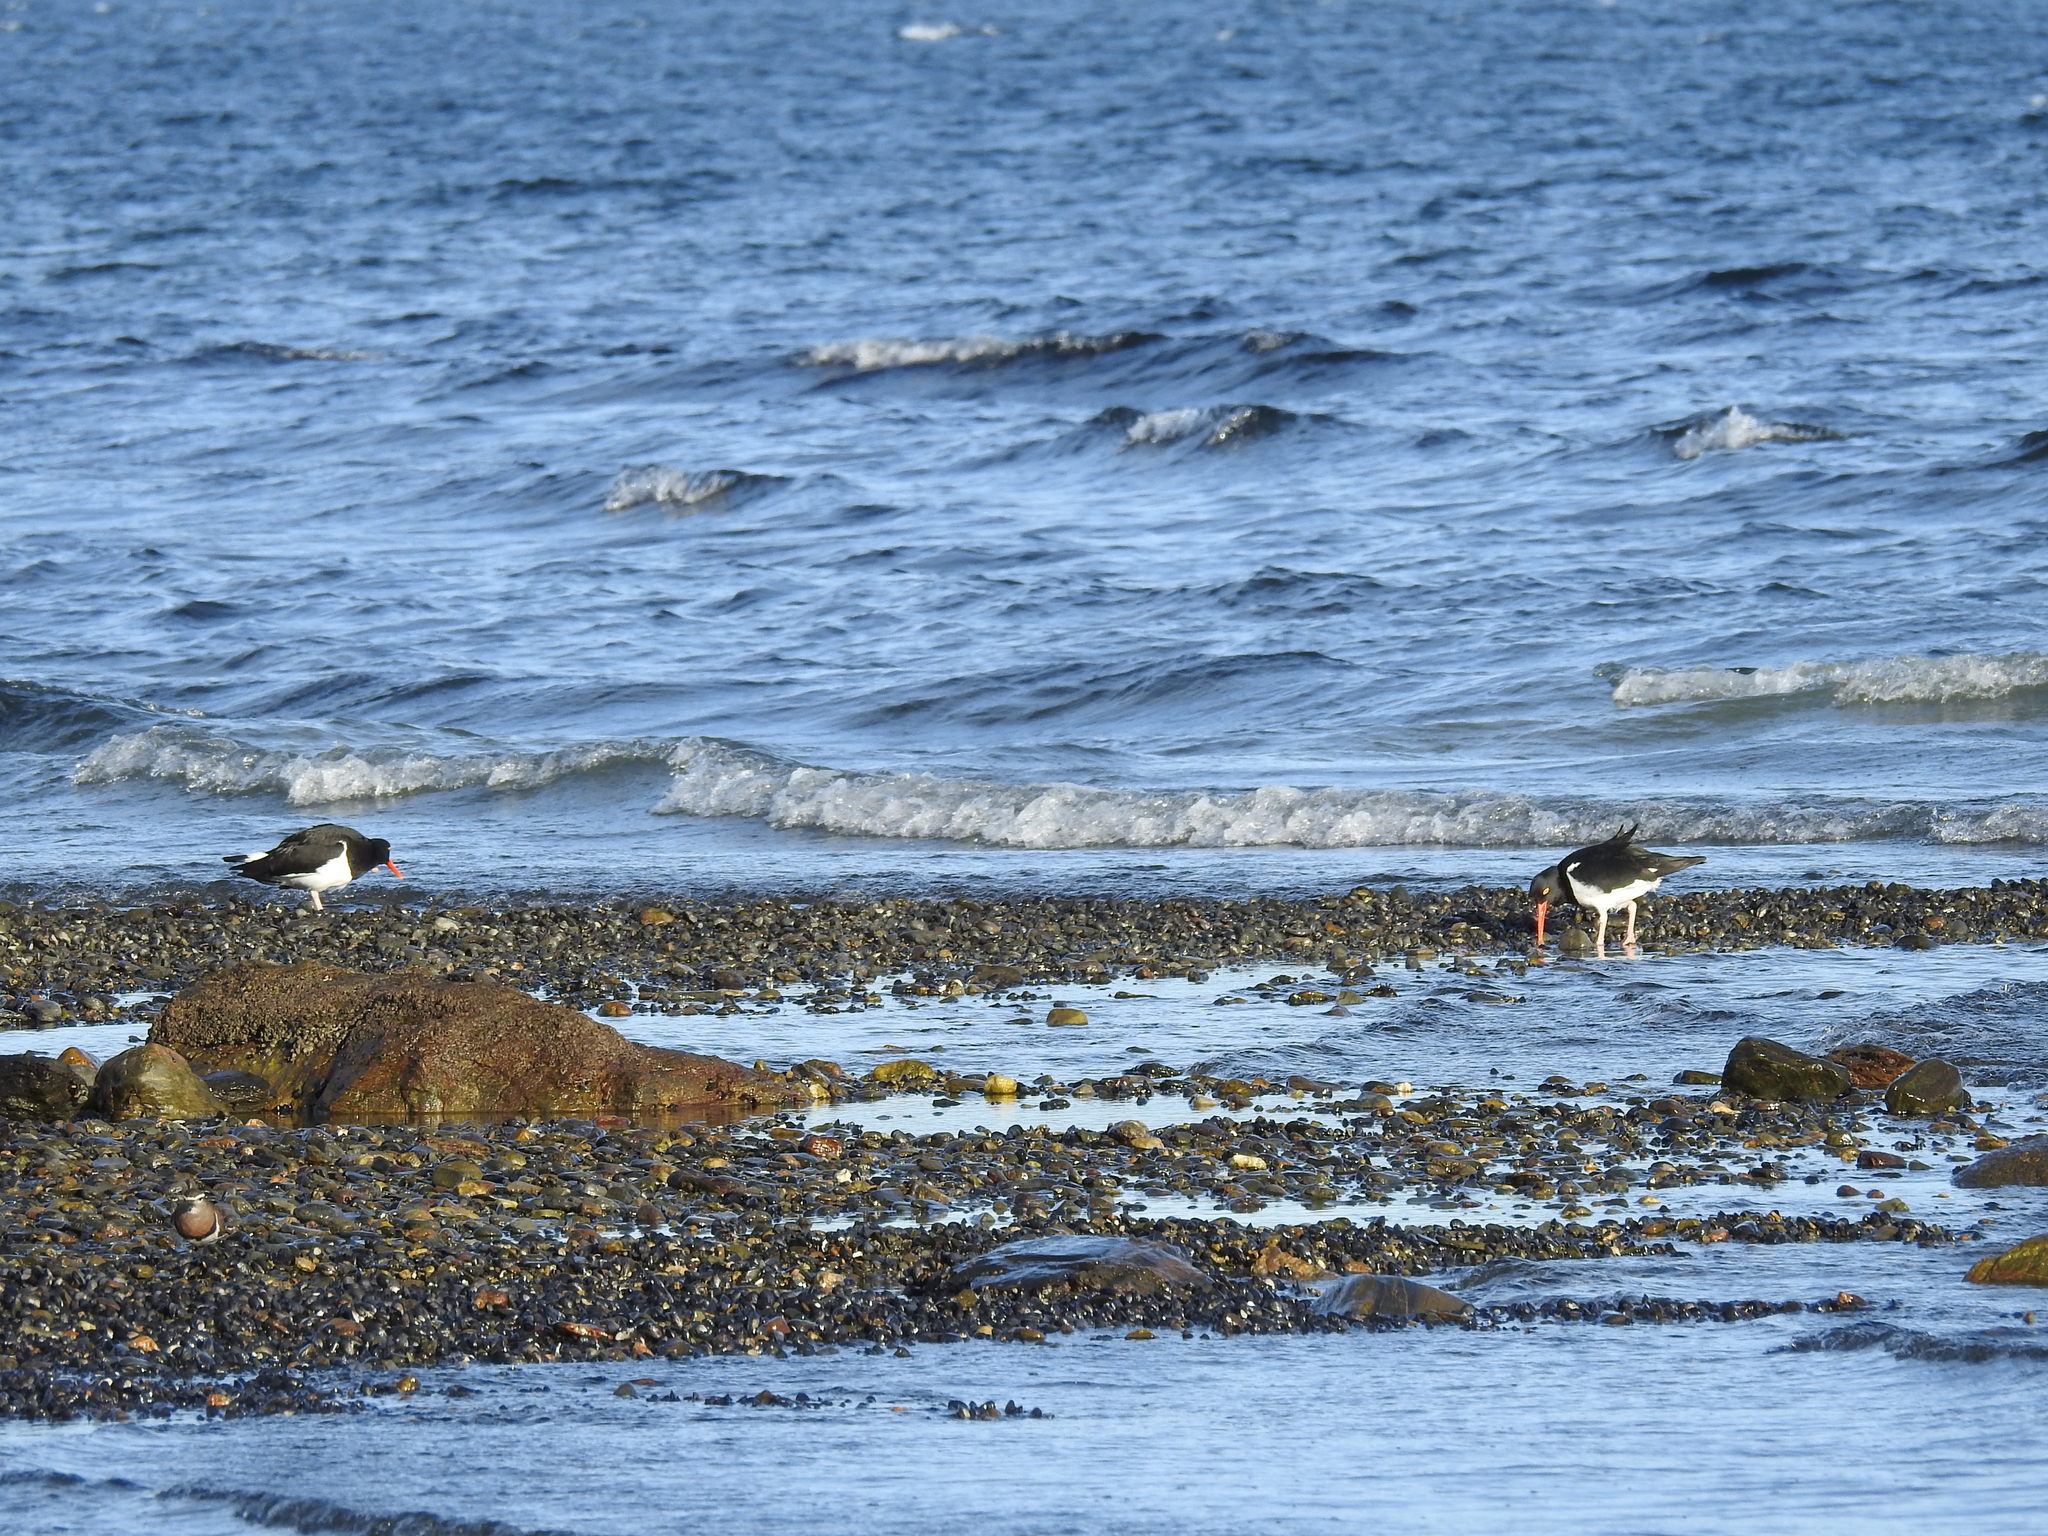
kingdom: Animalia
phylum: Chordata
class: Aves
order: Charadriiformes
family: Haematopodidae
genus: Haematopus
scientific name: Haematopus leucopodus
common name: Magellanic oystercatcher
